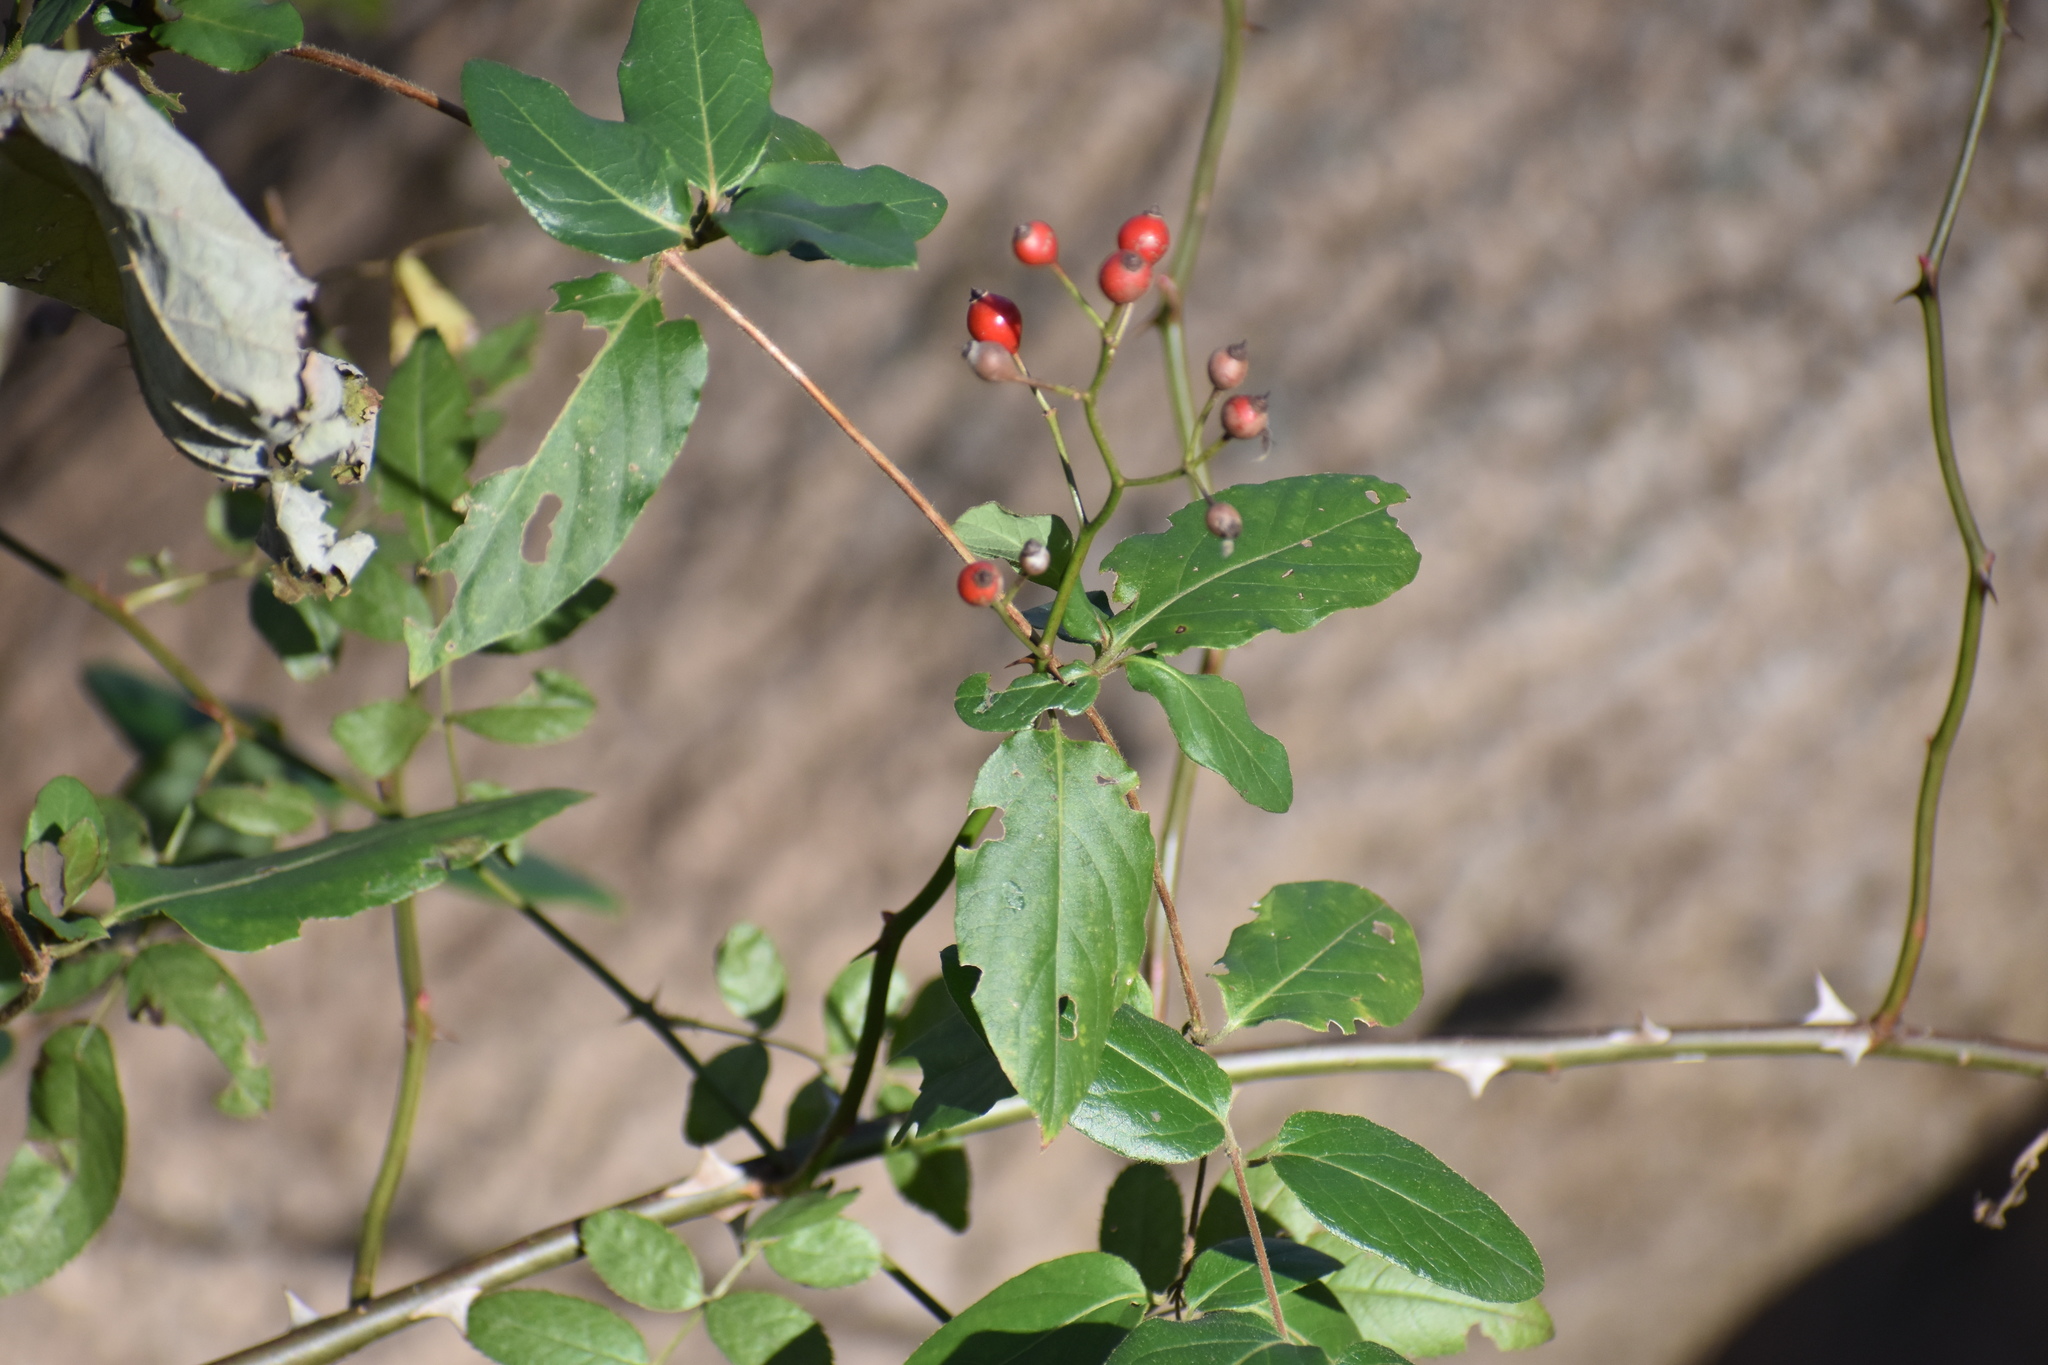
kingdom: Plantae
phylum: Tracheophyta
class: Magnoliopsida
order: Rosales
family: Rosaceae
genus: Rosa
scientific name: Rosa multiflora
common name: Multiflora rose
